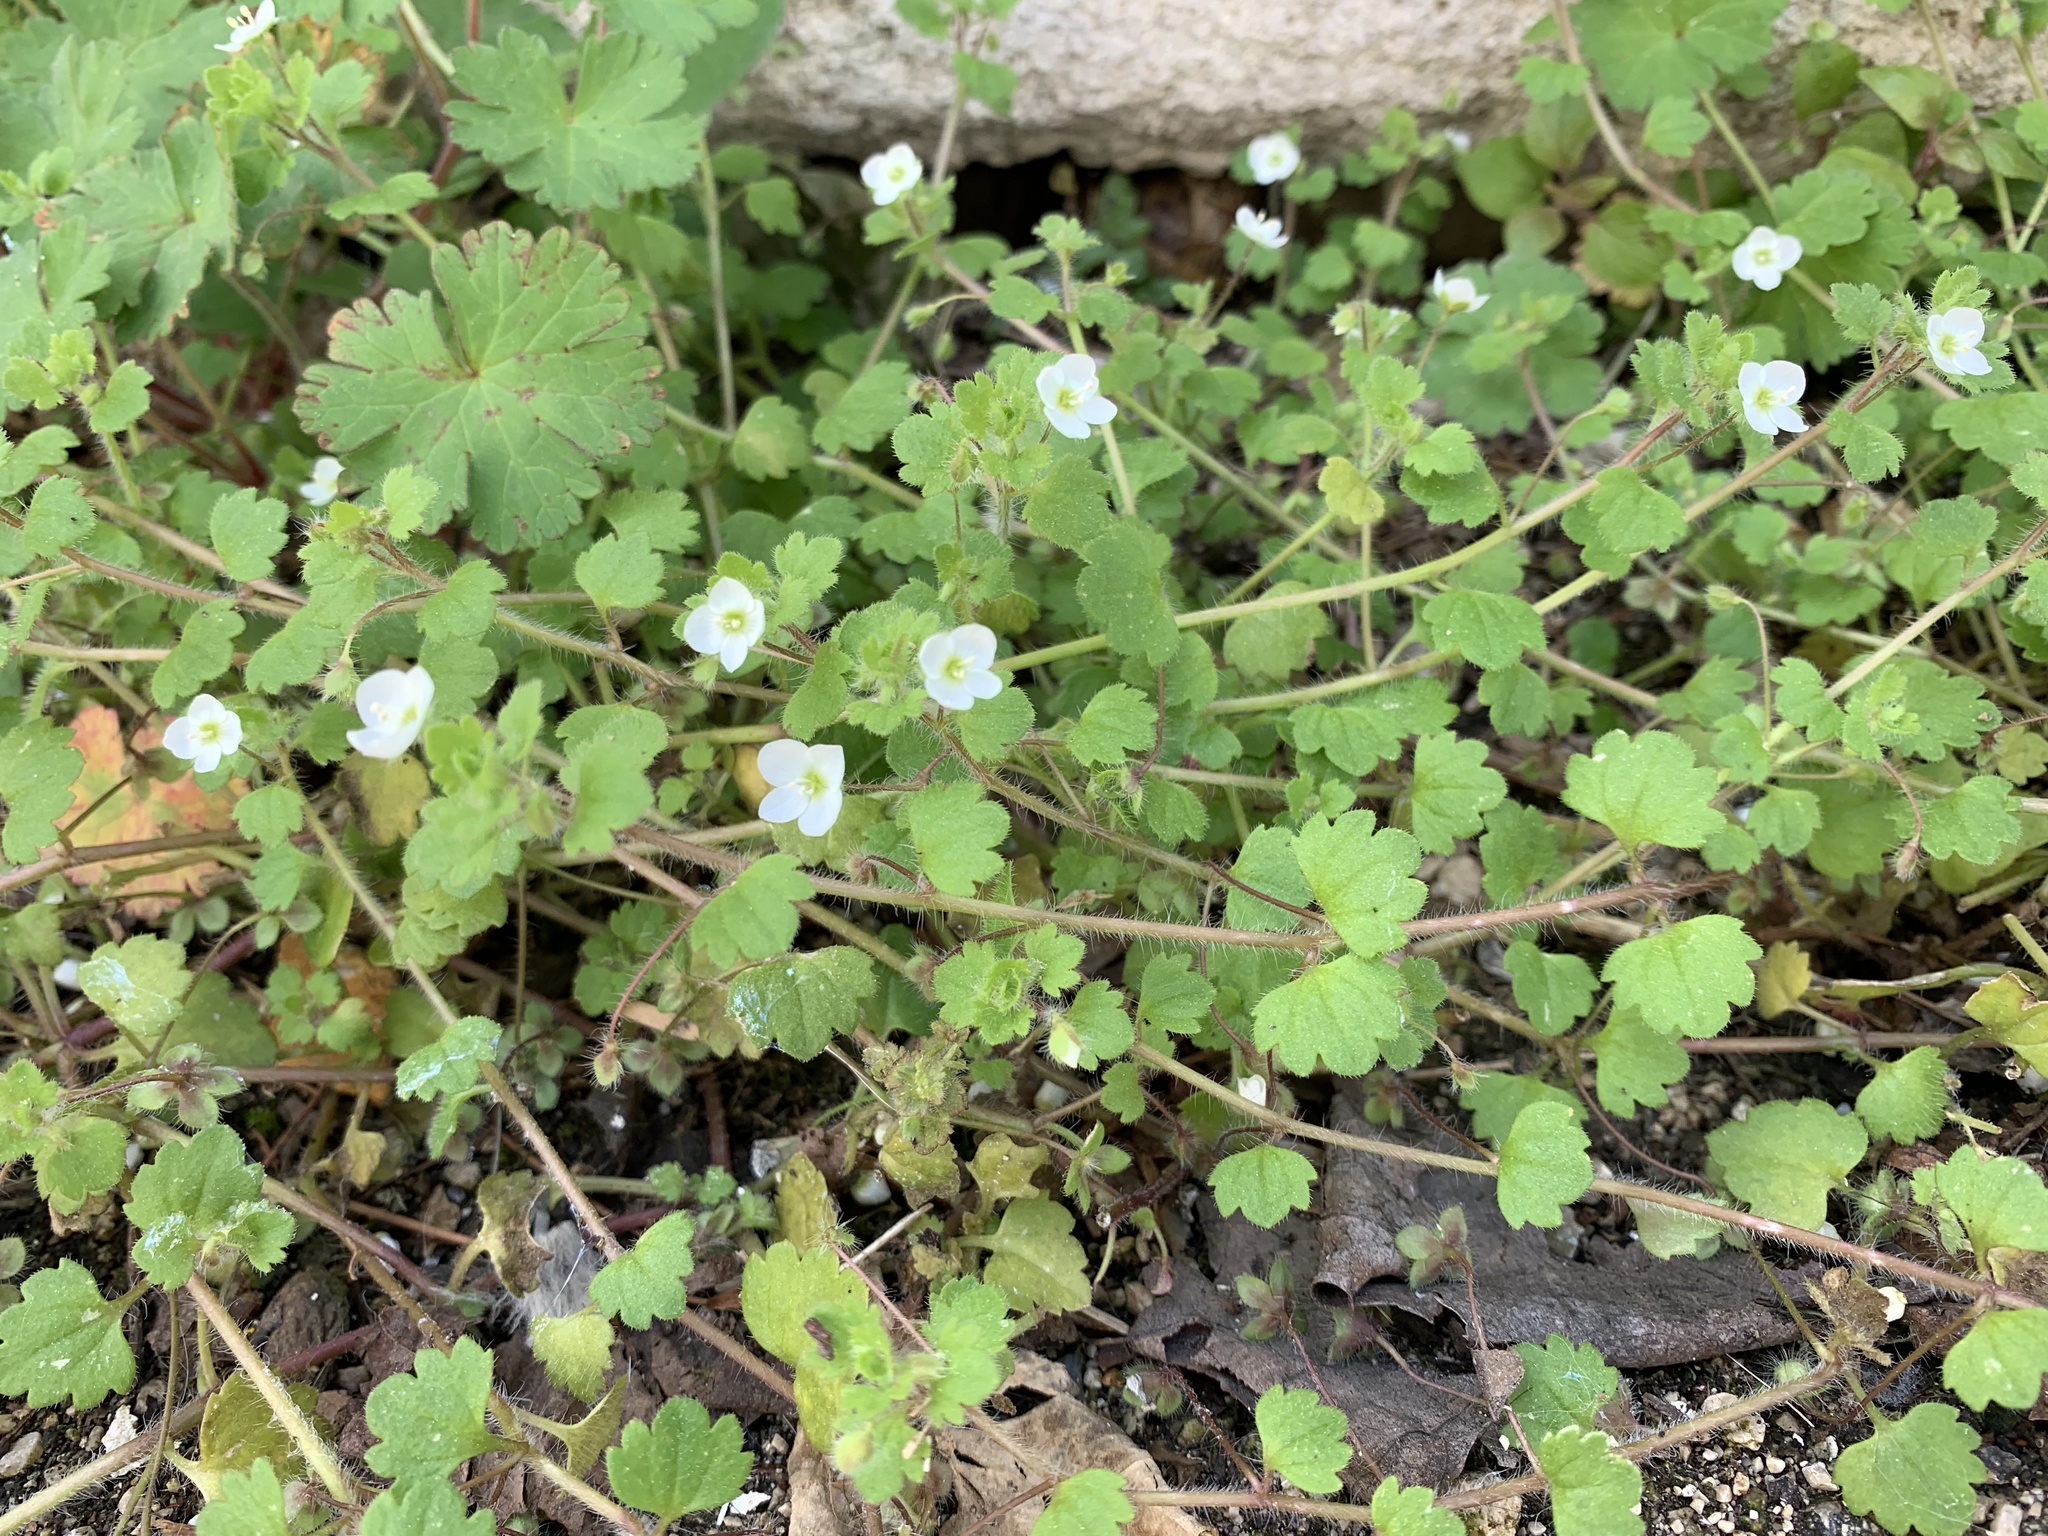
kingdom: Plantae
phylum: Tracheophyta
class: Magnoliopsida
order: Lamiales
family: Plantaginaceae
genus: Veronica
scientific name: Veronica cymbalaria
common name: Pale speedwell
